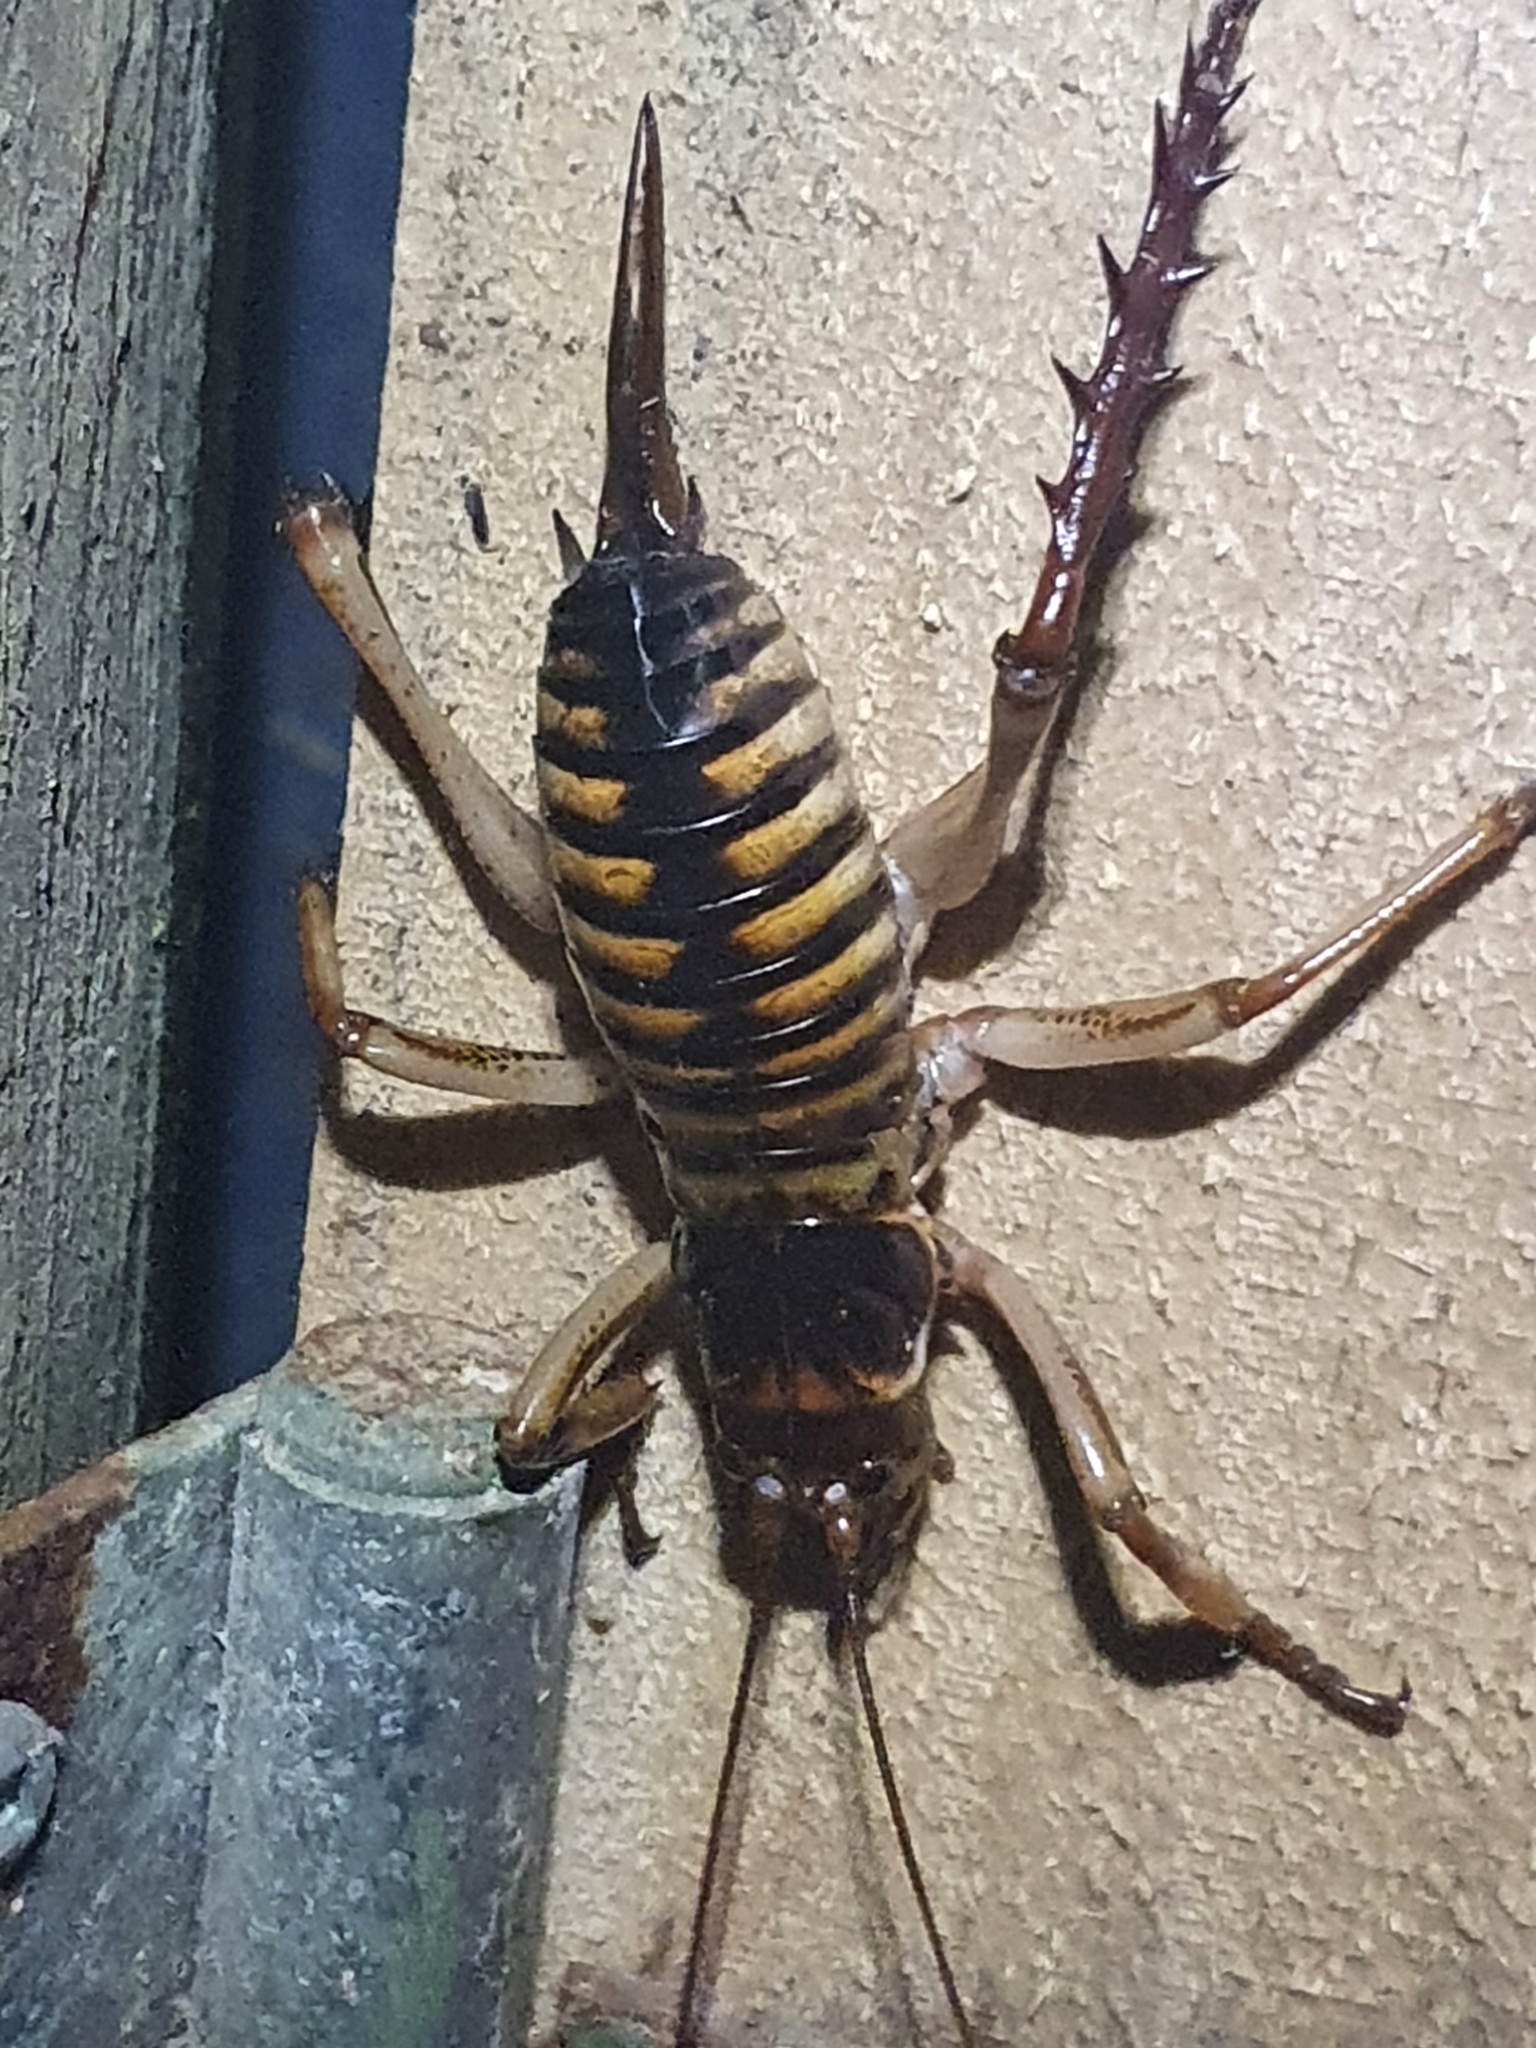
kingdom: Animalia
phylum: Arthropoda
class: Insecta
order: Orthoptera
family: Anostostomatidae
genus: Hemideina
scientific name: Hemideina crassidens
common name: Wellington tree weta
